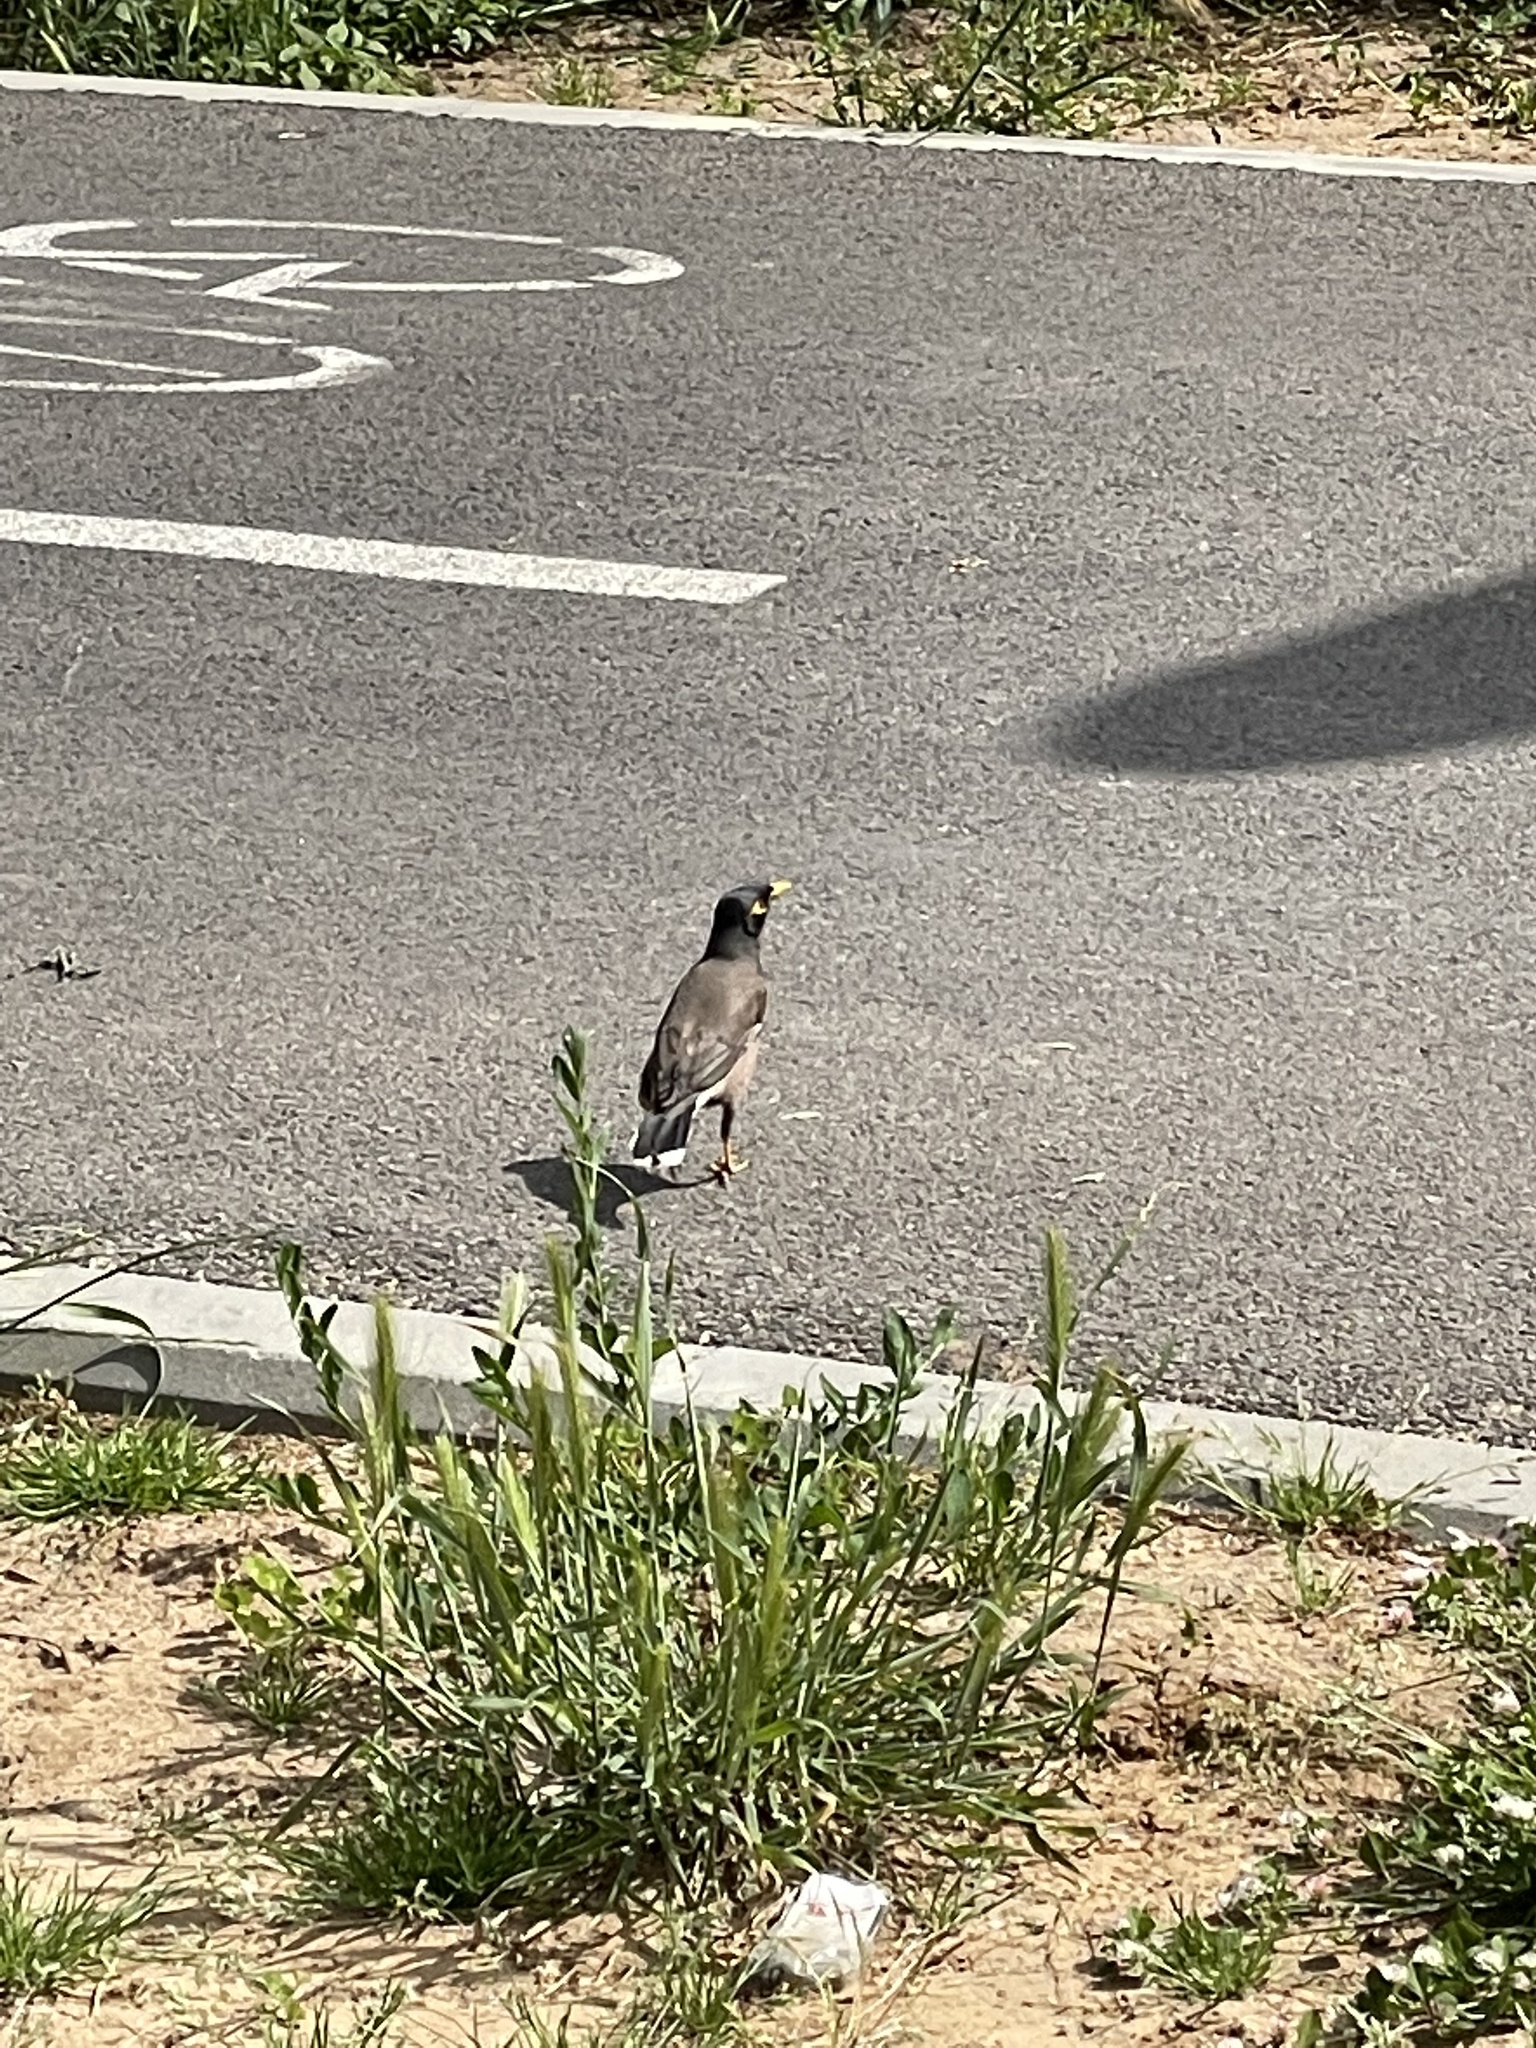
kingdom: Animalia
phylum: Chordata
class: Aves
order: Passeriformes
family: Sturnidae
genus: Acridotheres
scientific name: Acridotheres tristis
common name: Common myna
